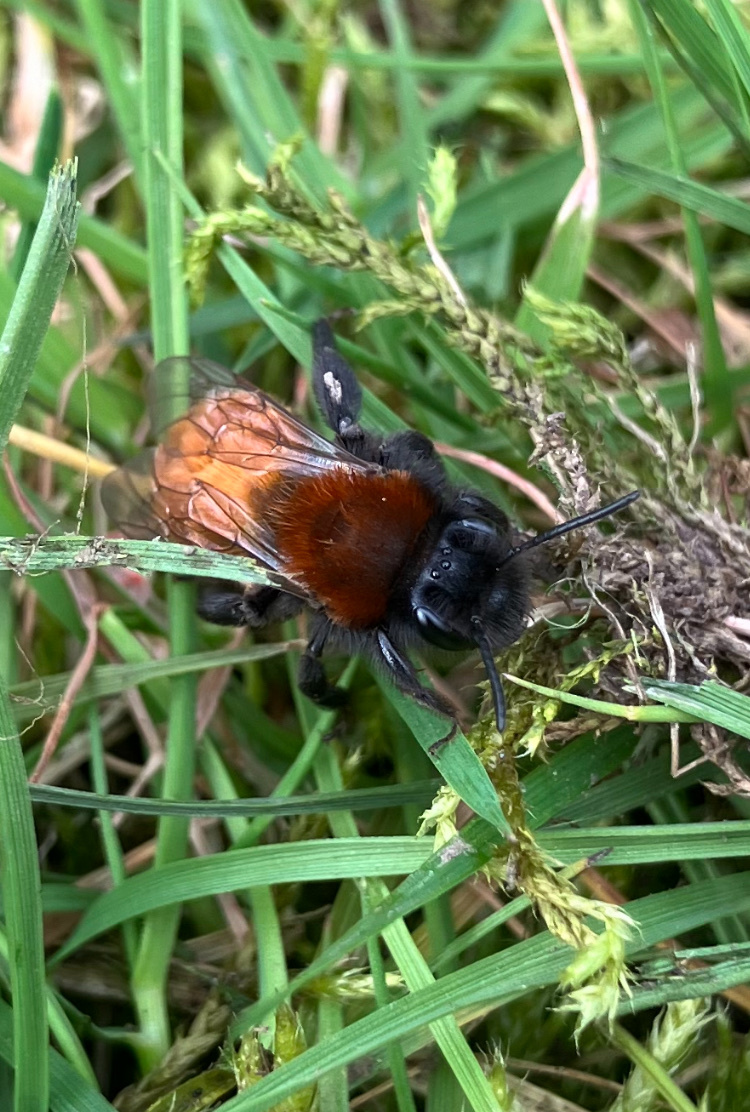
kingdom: Animalia
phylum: Arthropoda
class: Insecta
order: Hymenoptera
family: Andrenidae
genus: Andrena
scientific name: Andrena fulva
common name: Tawny mining bee
